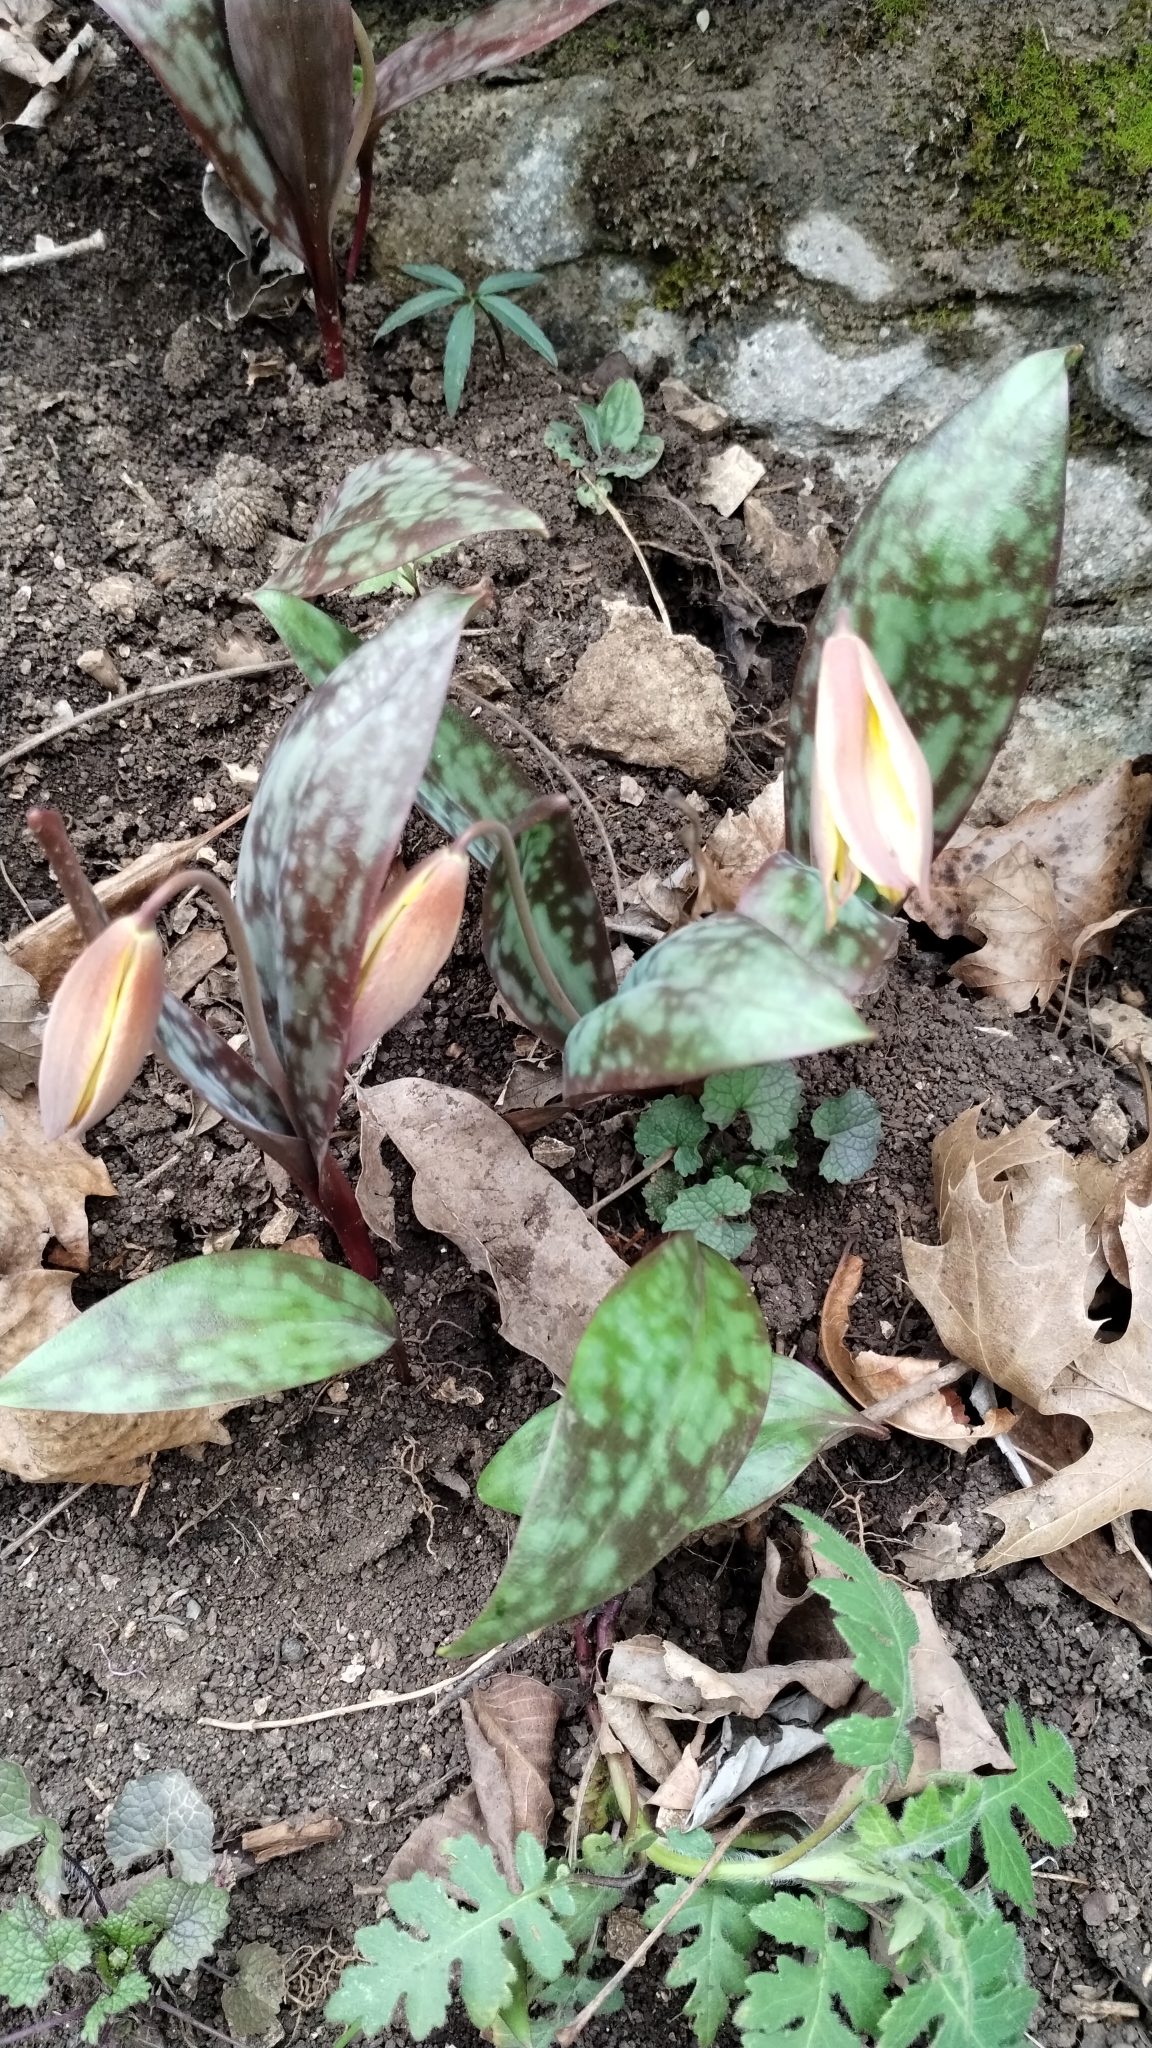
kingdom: Plantae
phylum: Tracheophyta
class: Liliopsida
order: Liliales
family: Liliaceae
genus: Erythronium
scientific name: Erythronium rostratum
